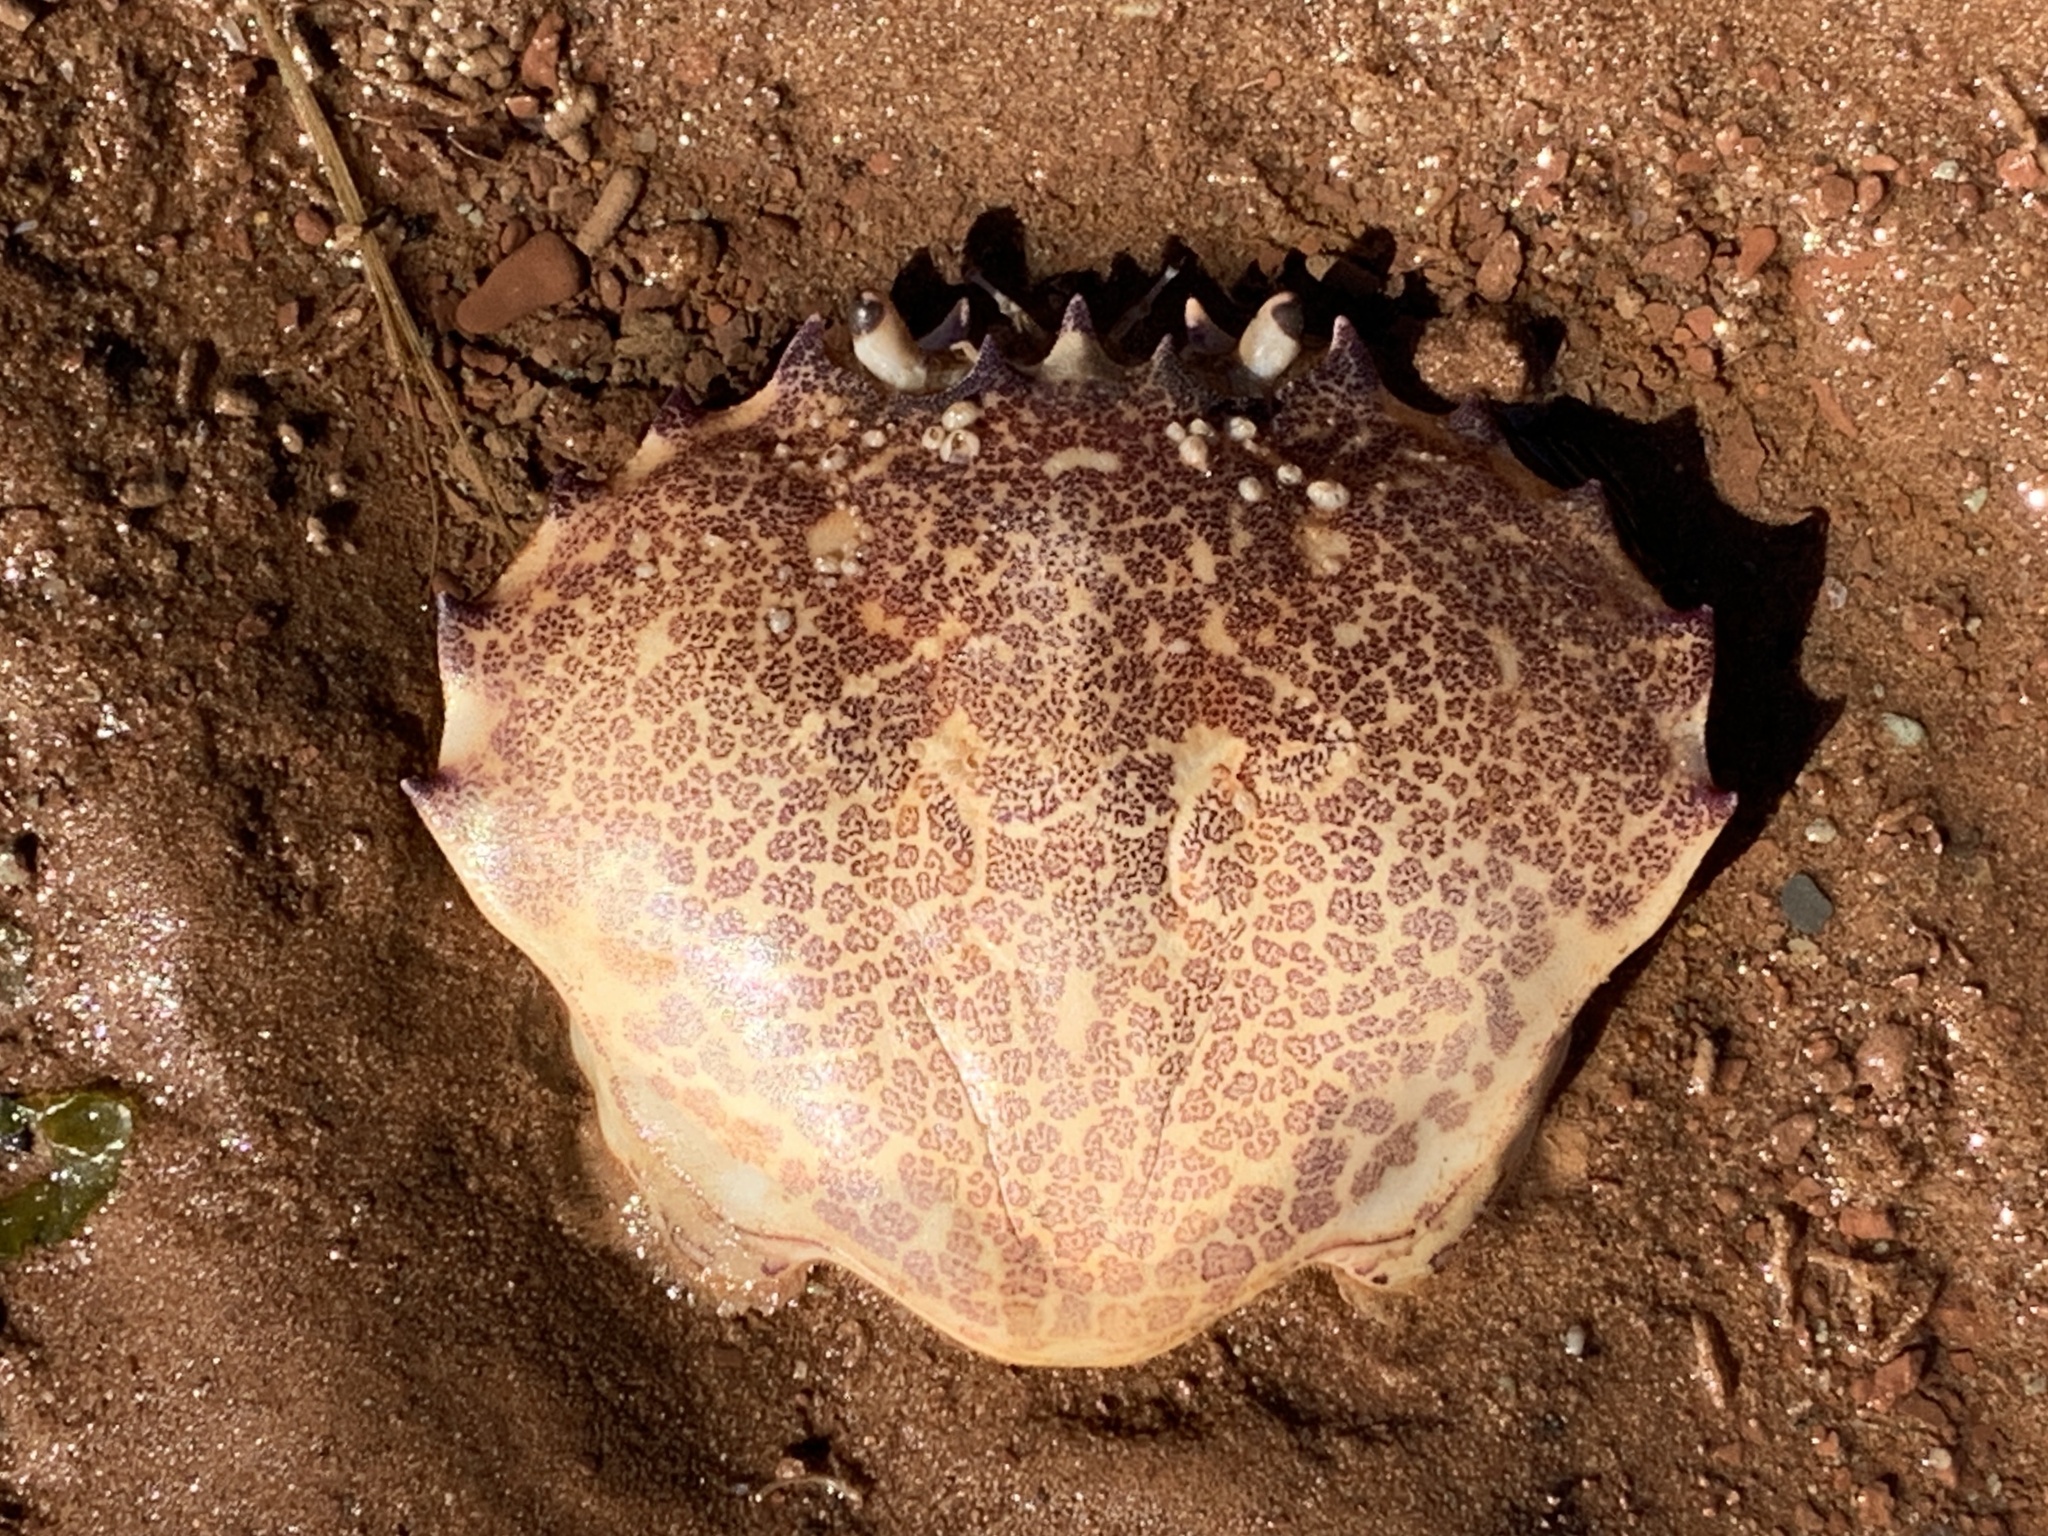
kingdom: Animalia
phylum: Arthropoda
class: Malacostraca
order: Decapoda
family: Ovalipidae
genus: Ovalipes
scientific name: Ovalipes ocellatus
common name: Lady crab
